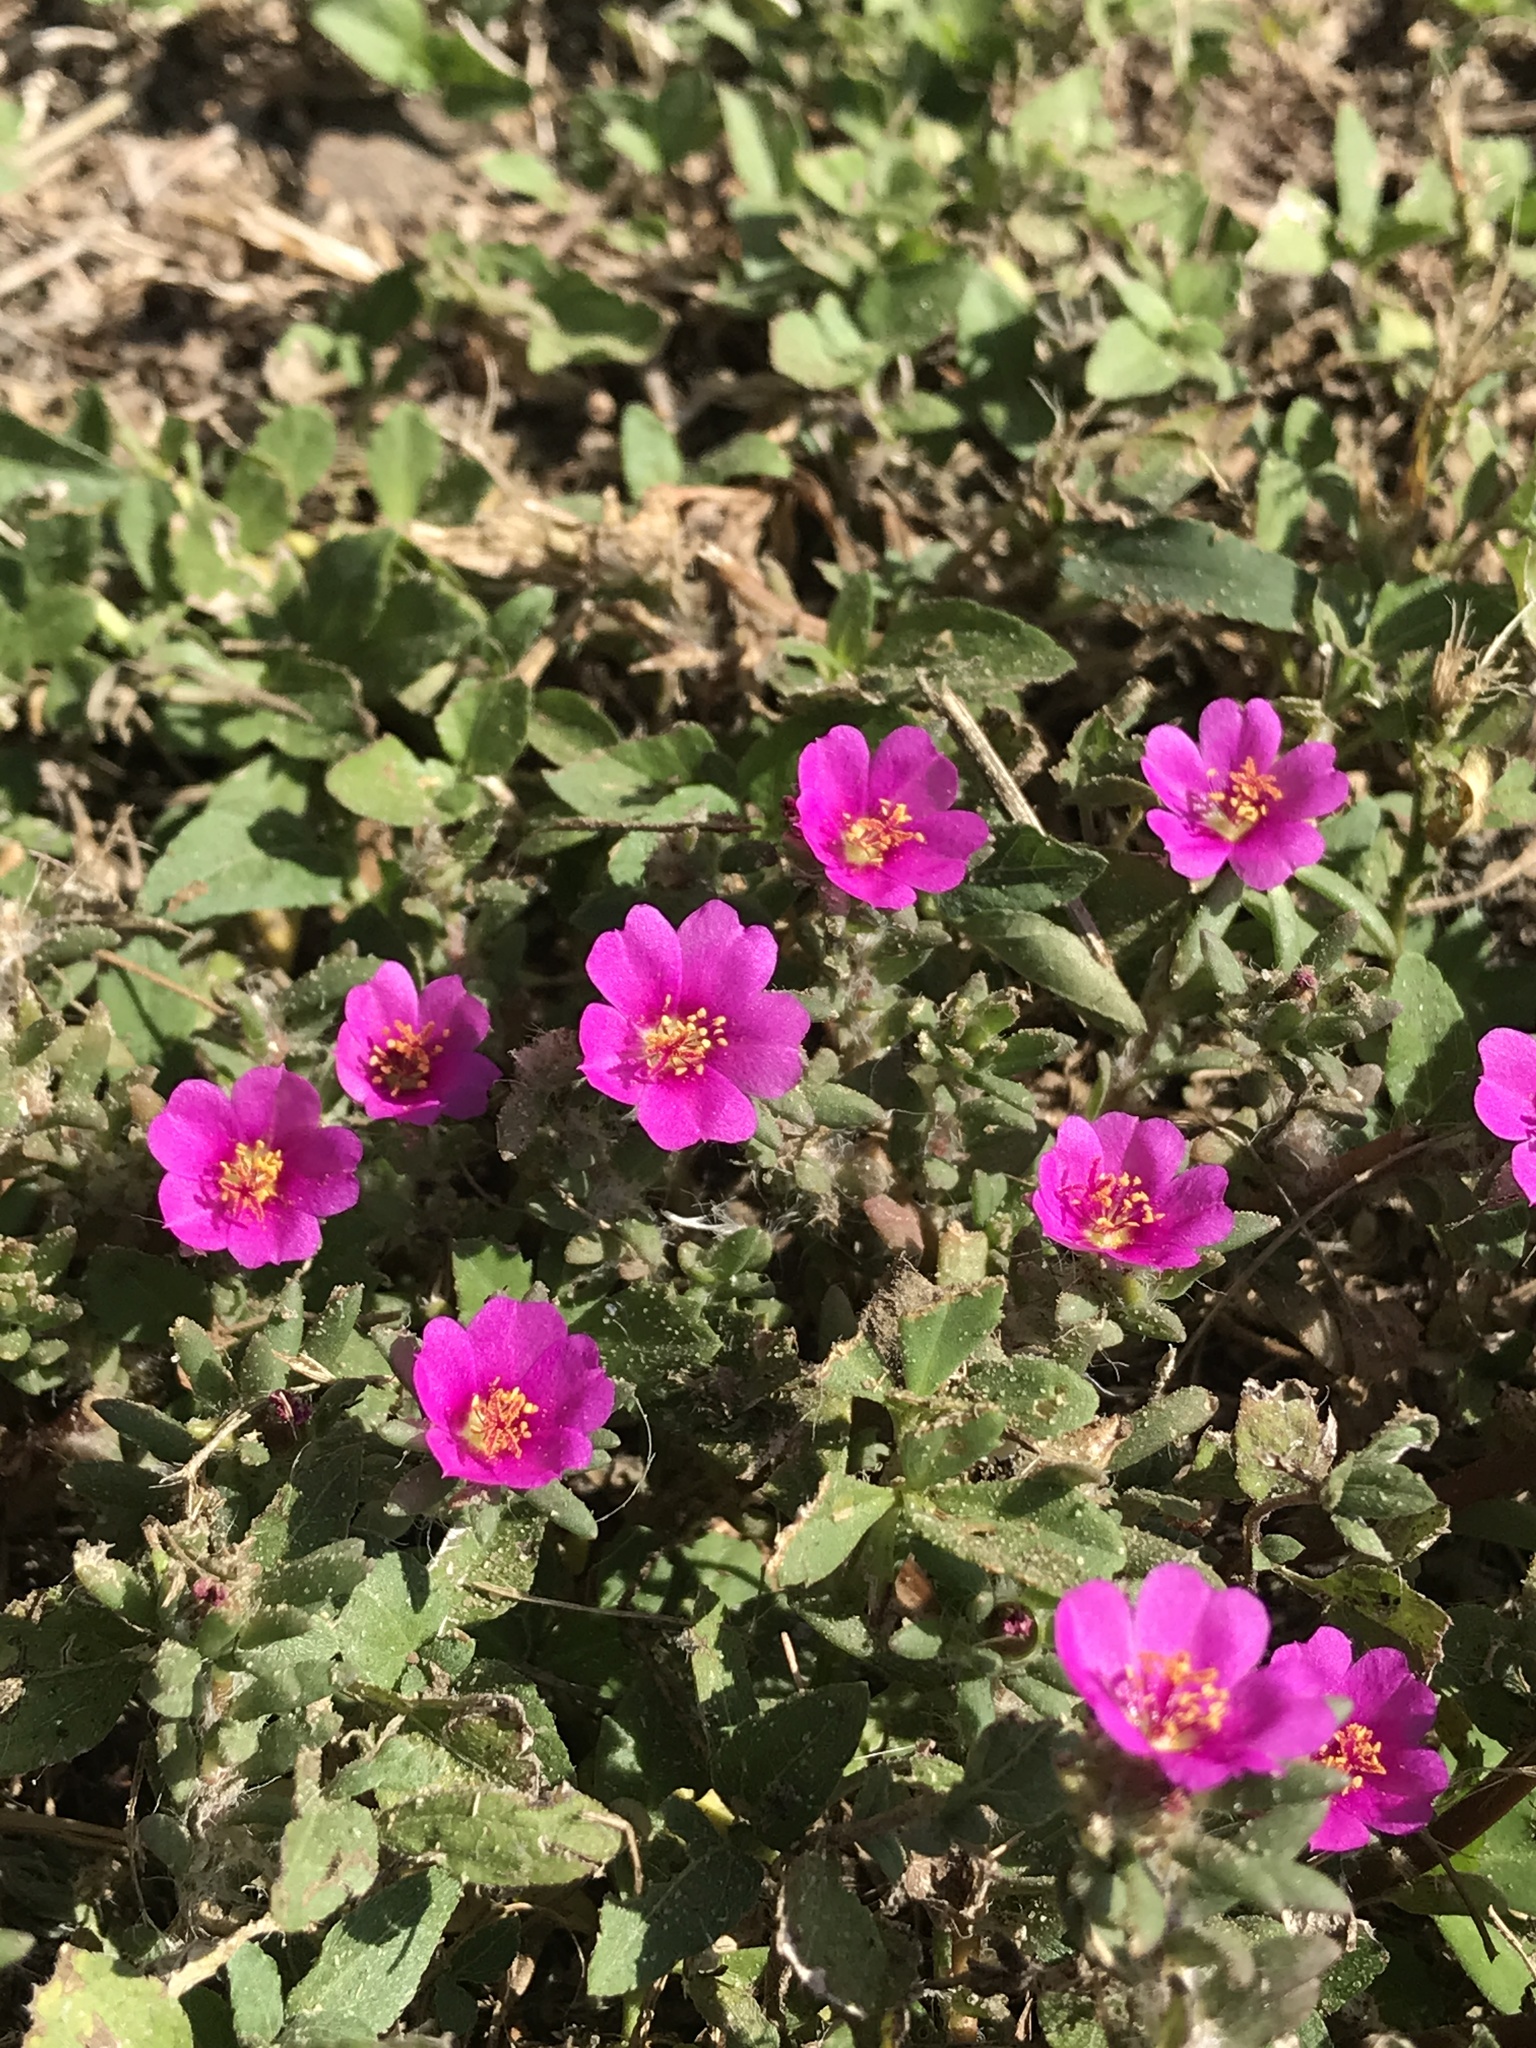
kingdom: Plantae
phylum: Tracheophyta
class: Magnoliopsida
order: Caryophyllales
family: Portulacaceae
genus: Portulaca
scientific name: Portulaca pilosa
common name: Kiss me quick
